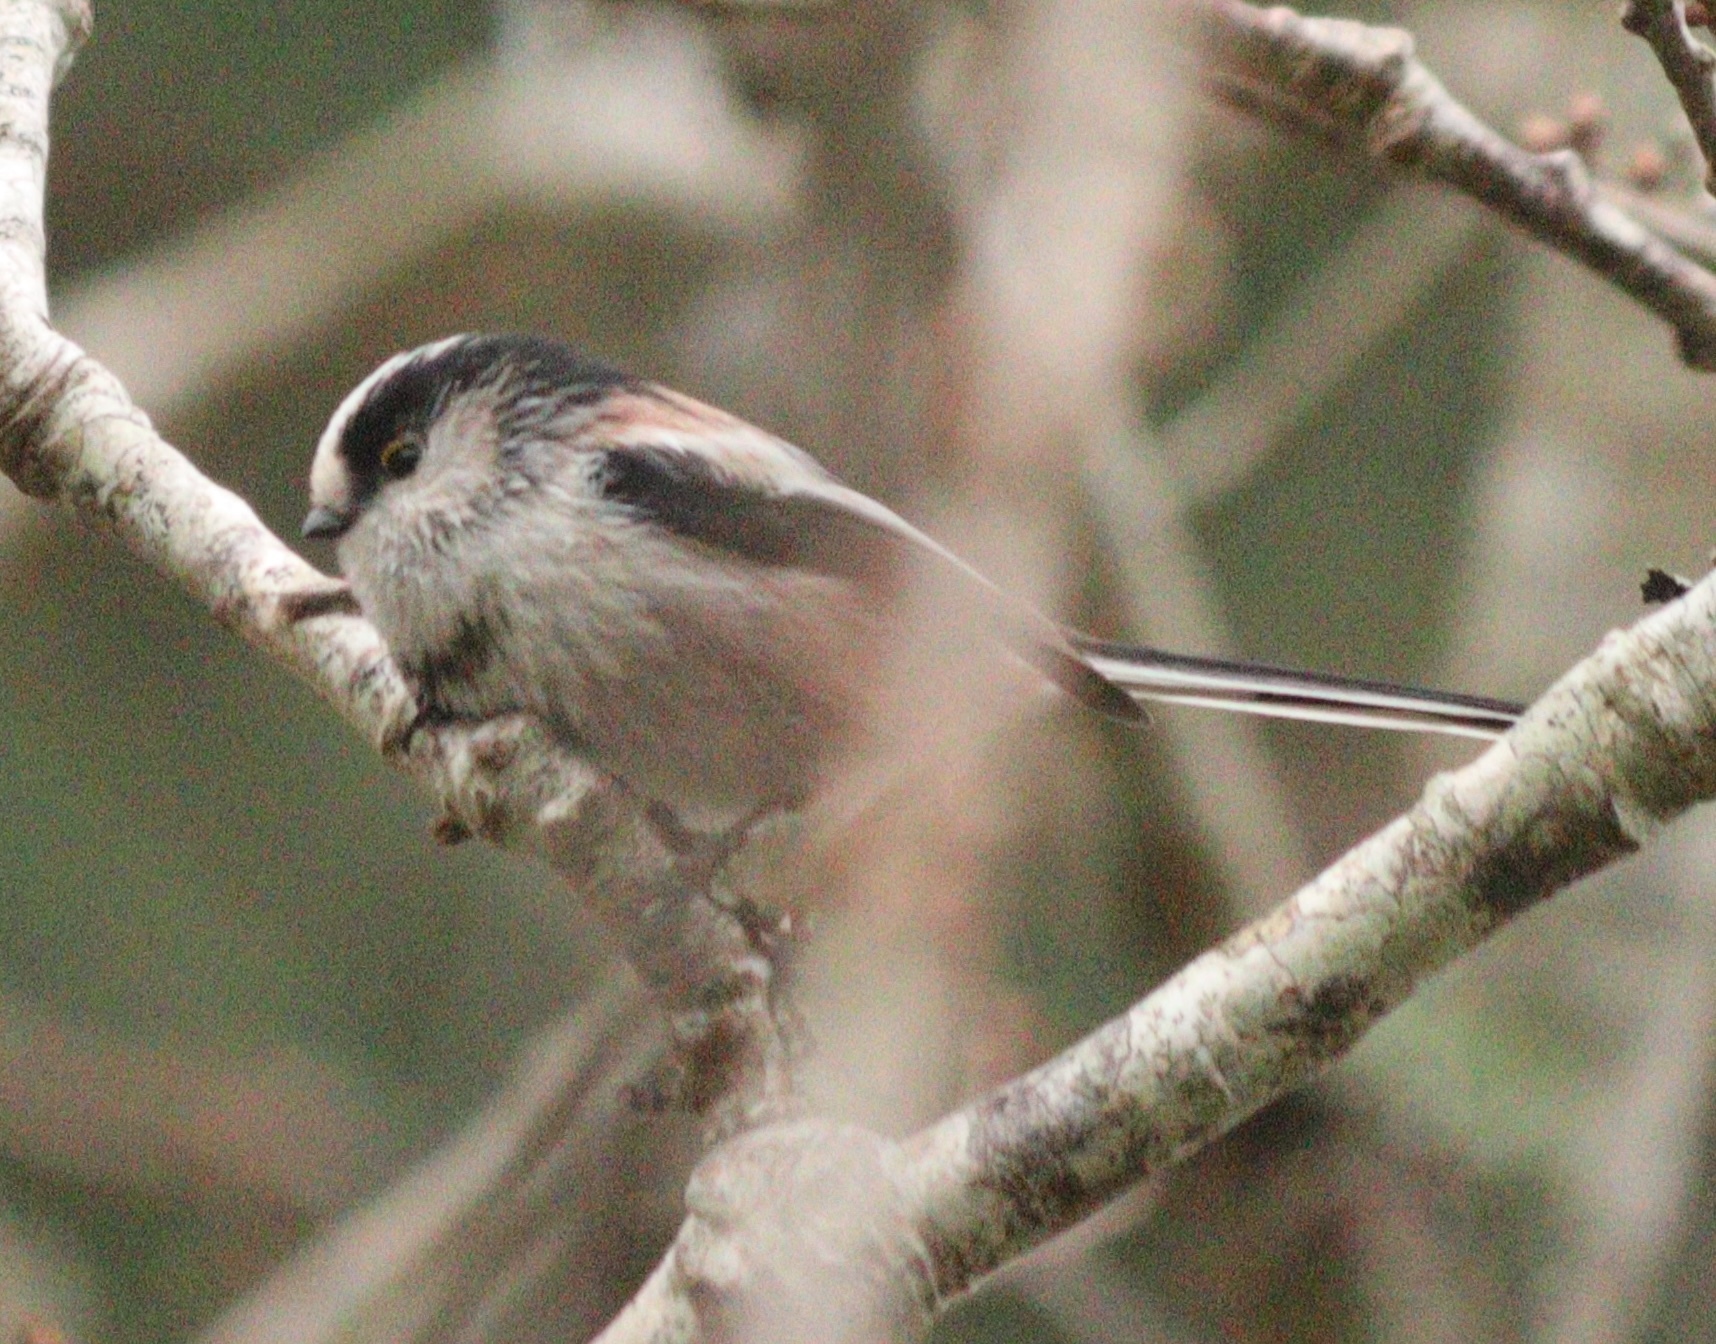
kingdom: Animalia
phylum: Chordata
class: Aves
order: Passeriformes
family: Aegithalidae
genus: Aegithalos
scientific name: Aegithalos caudatus
